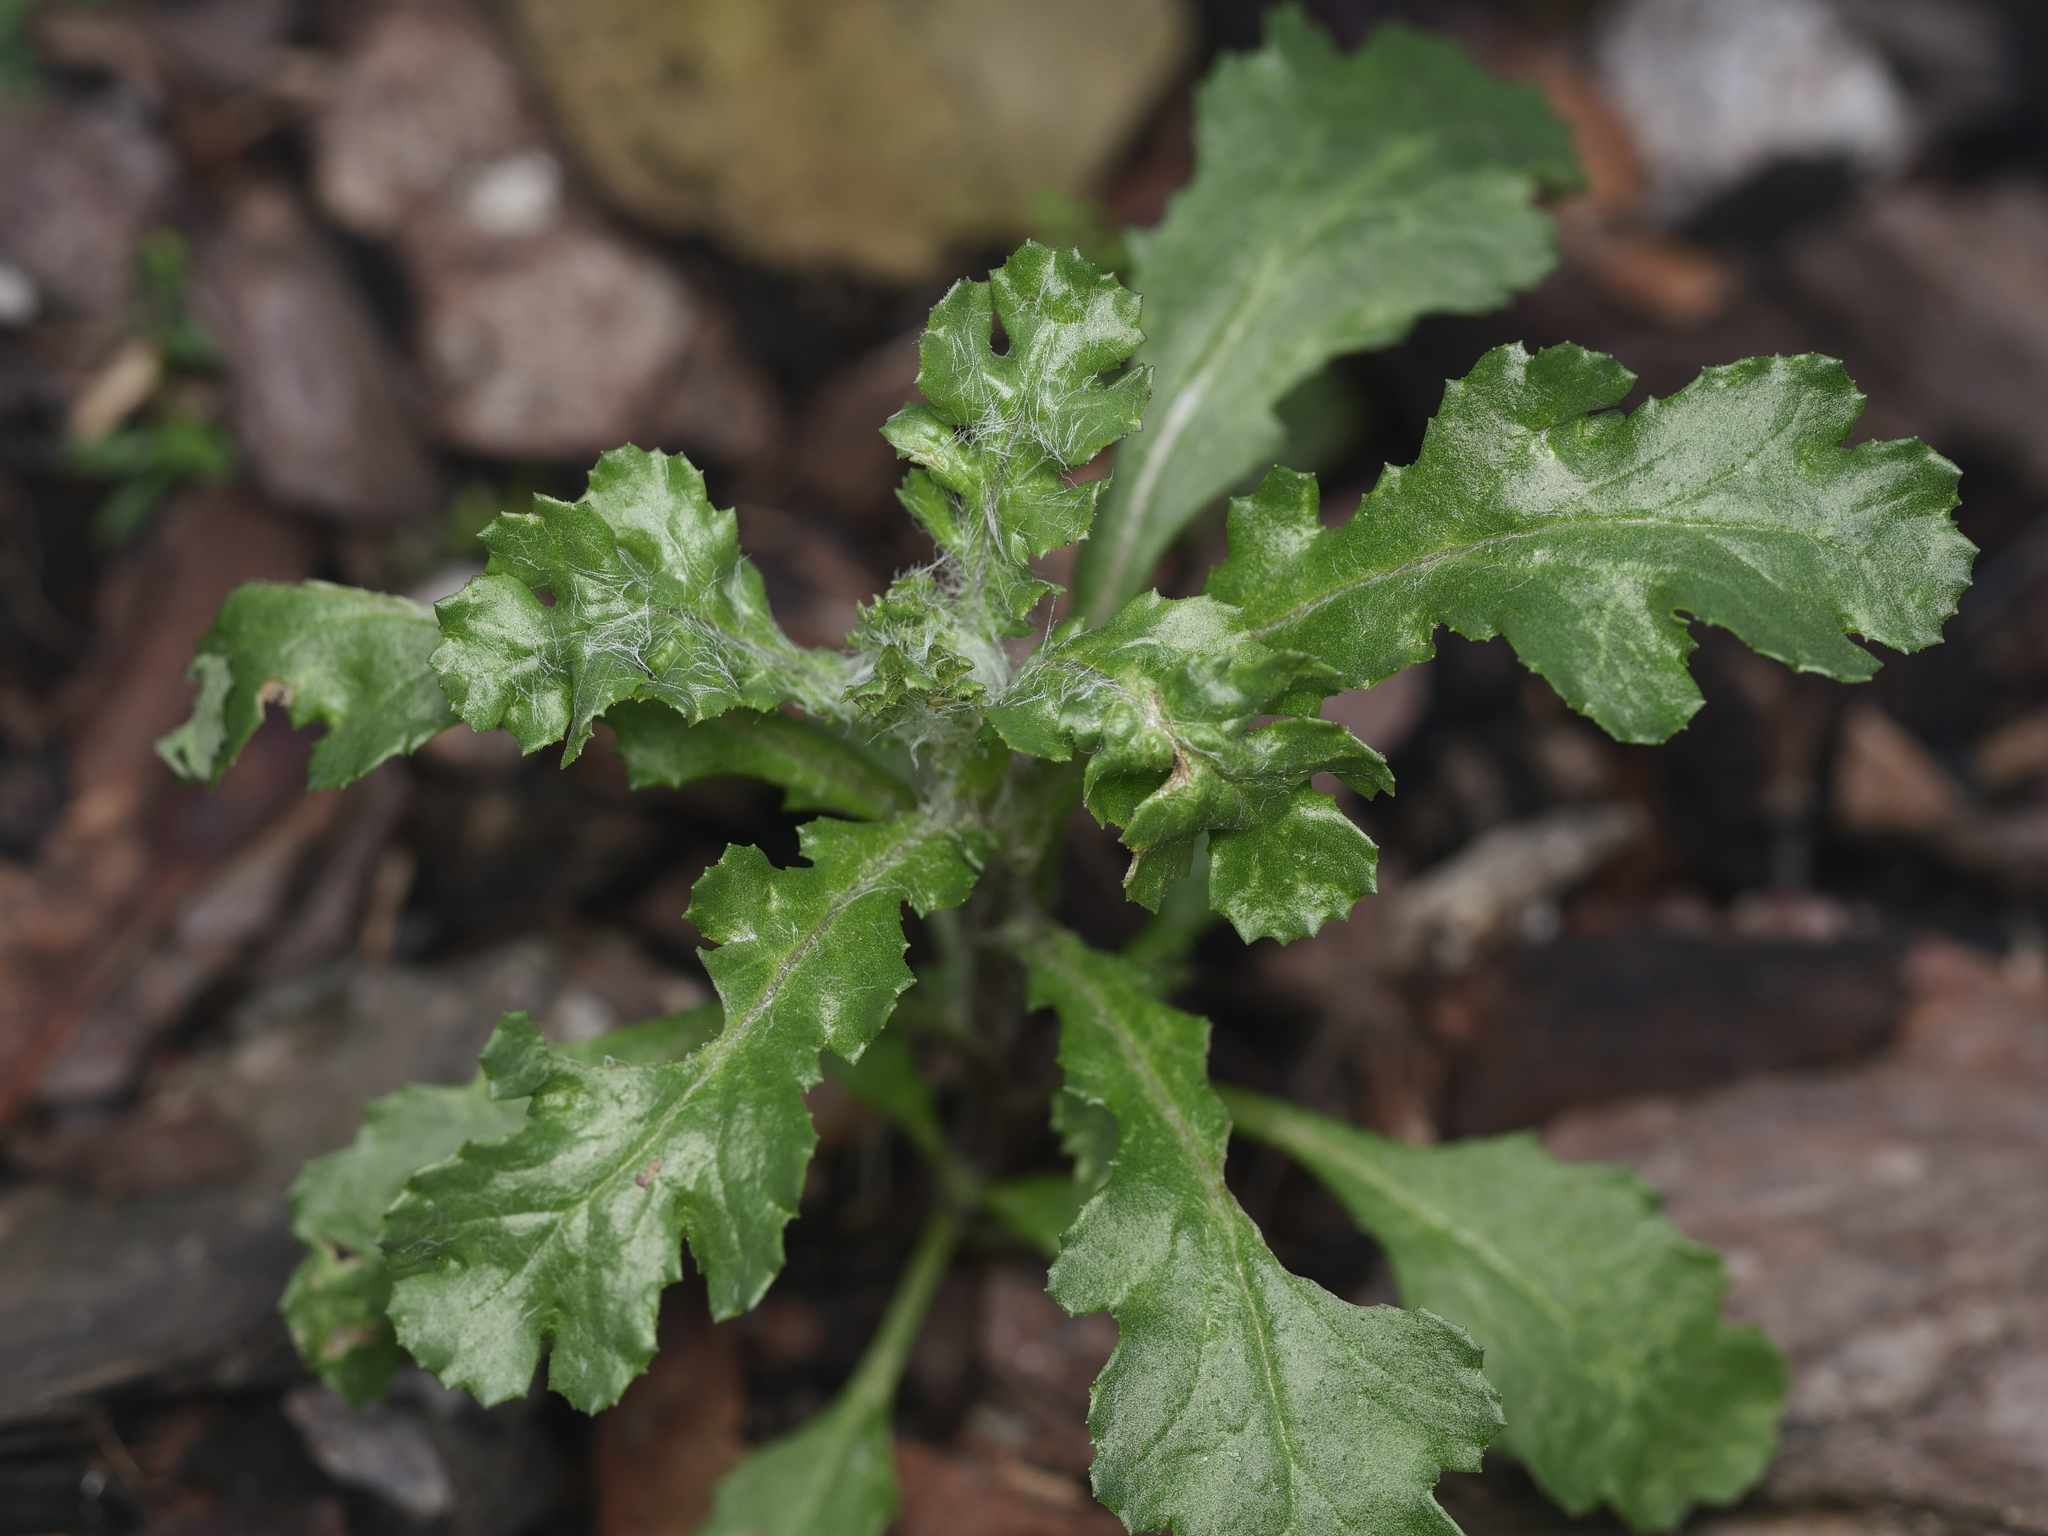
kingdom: Plantae
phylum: Tracheophyta
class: Magnoliopsida
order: Asterales
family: Asteraceae
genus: Senecio
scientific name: Senecio vulgaris
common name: Old-man-in-the-spring
